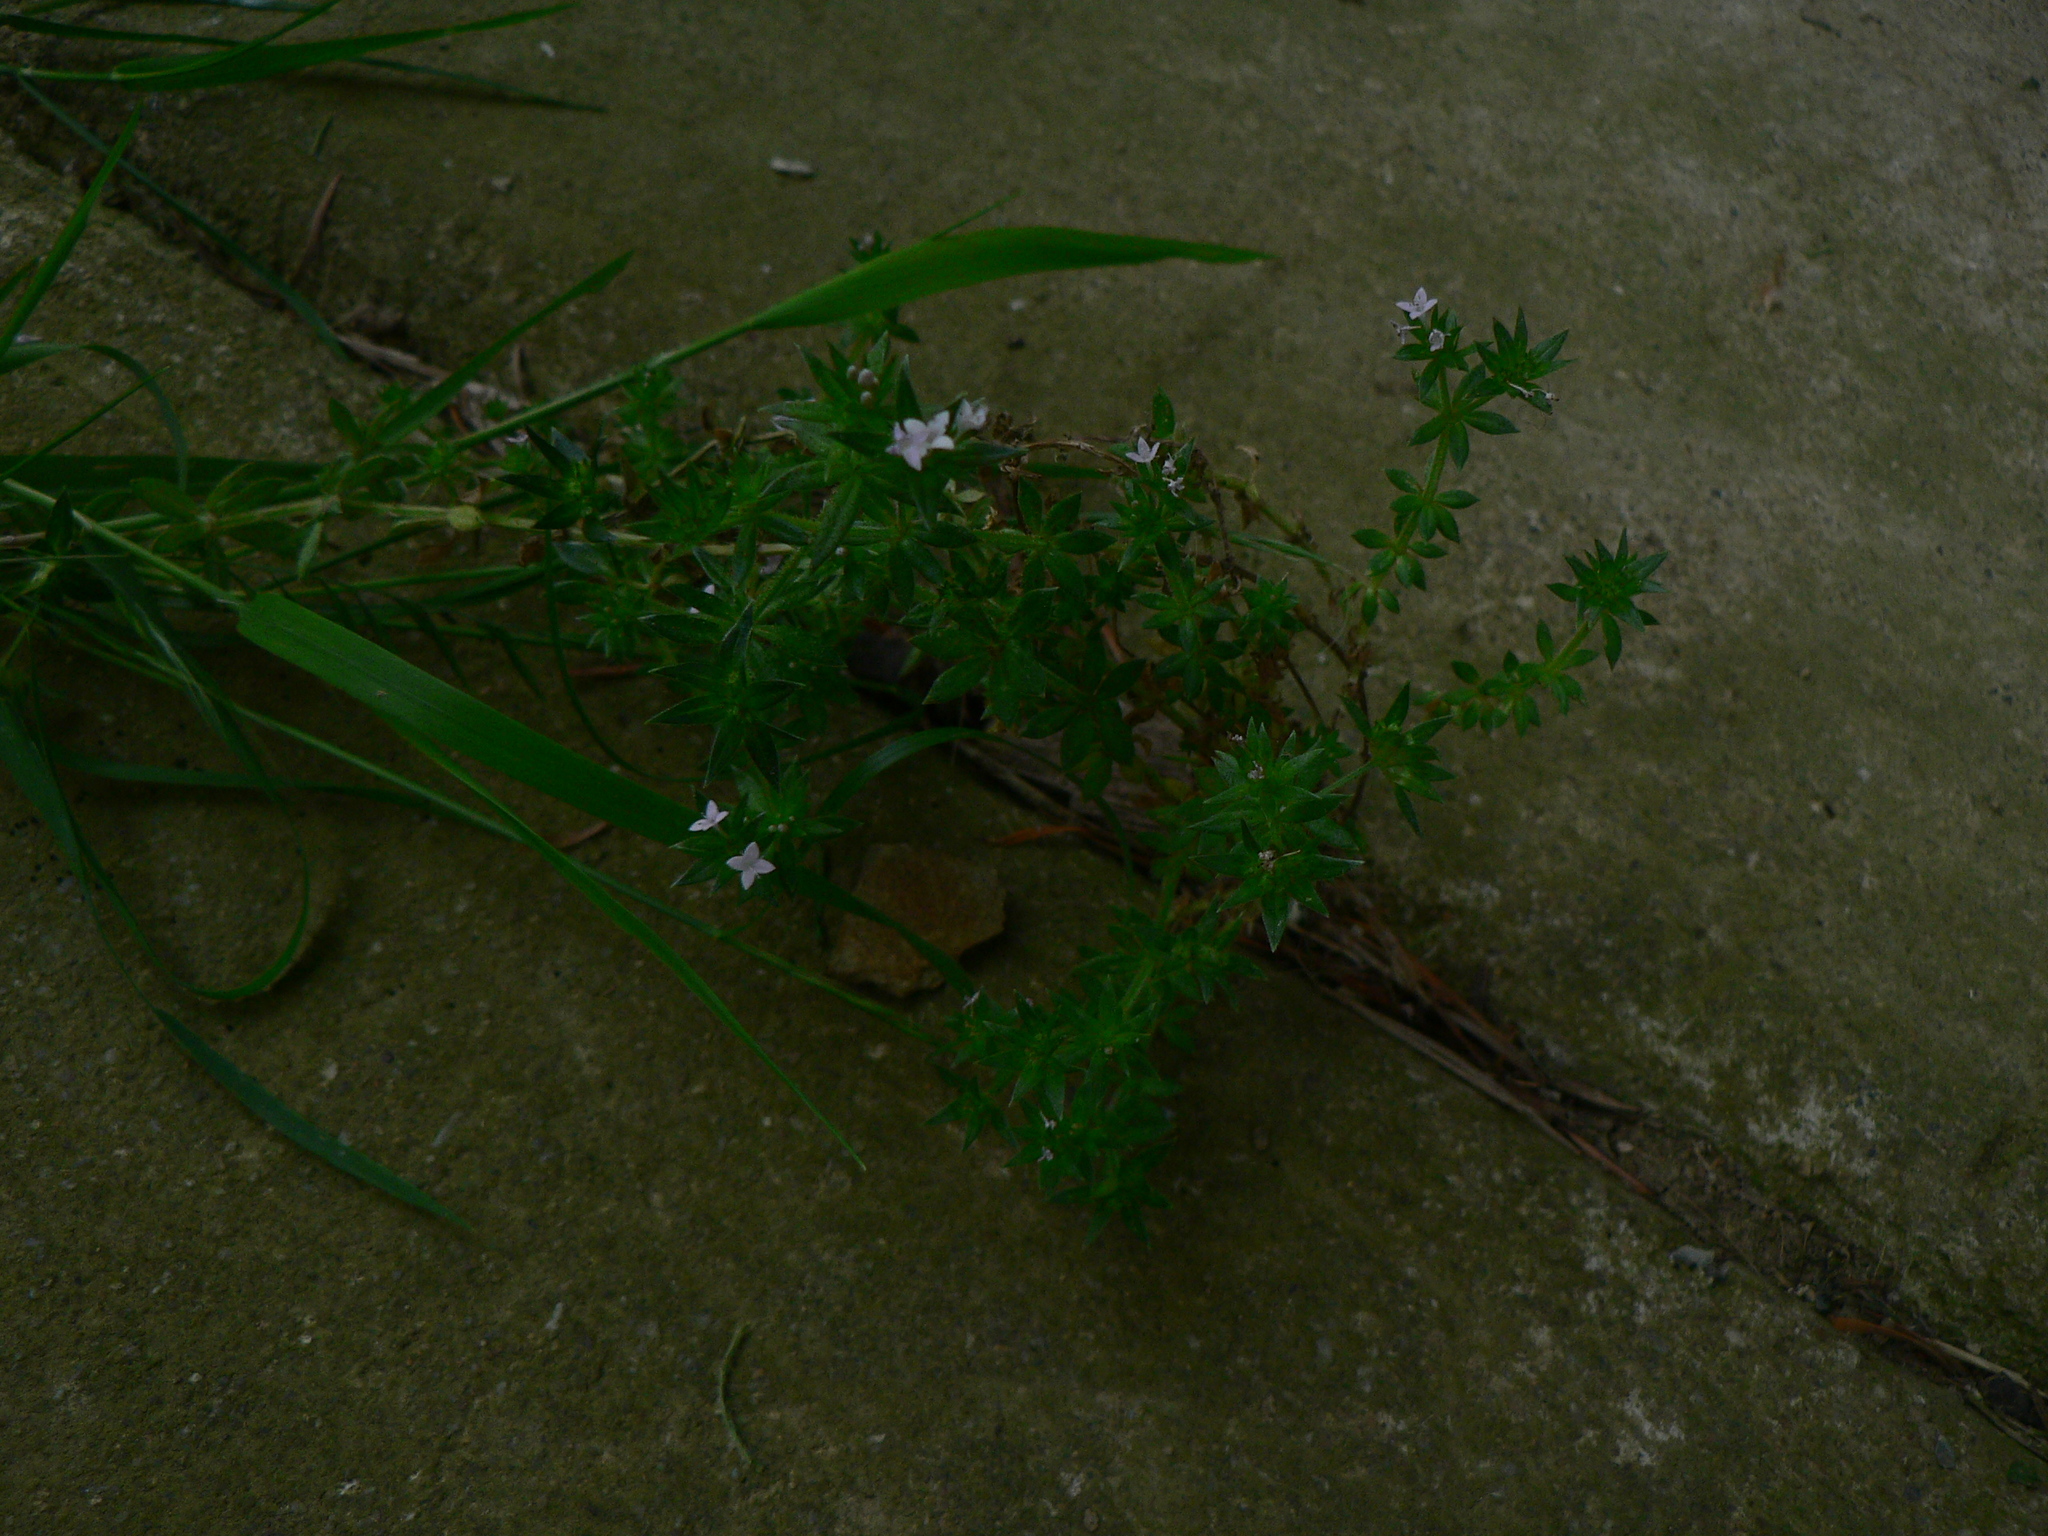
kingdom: Plantae
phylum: Tracheophyta
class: Magnoliopsida
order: Gentianales
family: Rubiaceae
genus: Sherardia
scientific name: Sherardia arvensis
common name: Field madder
